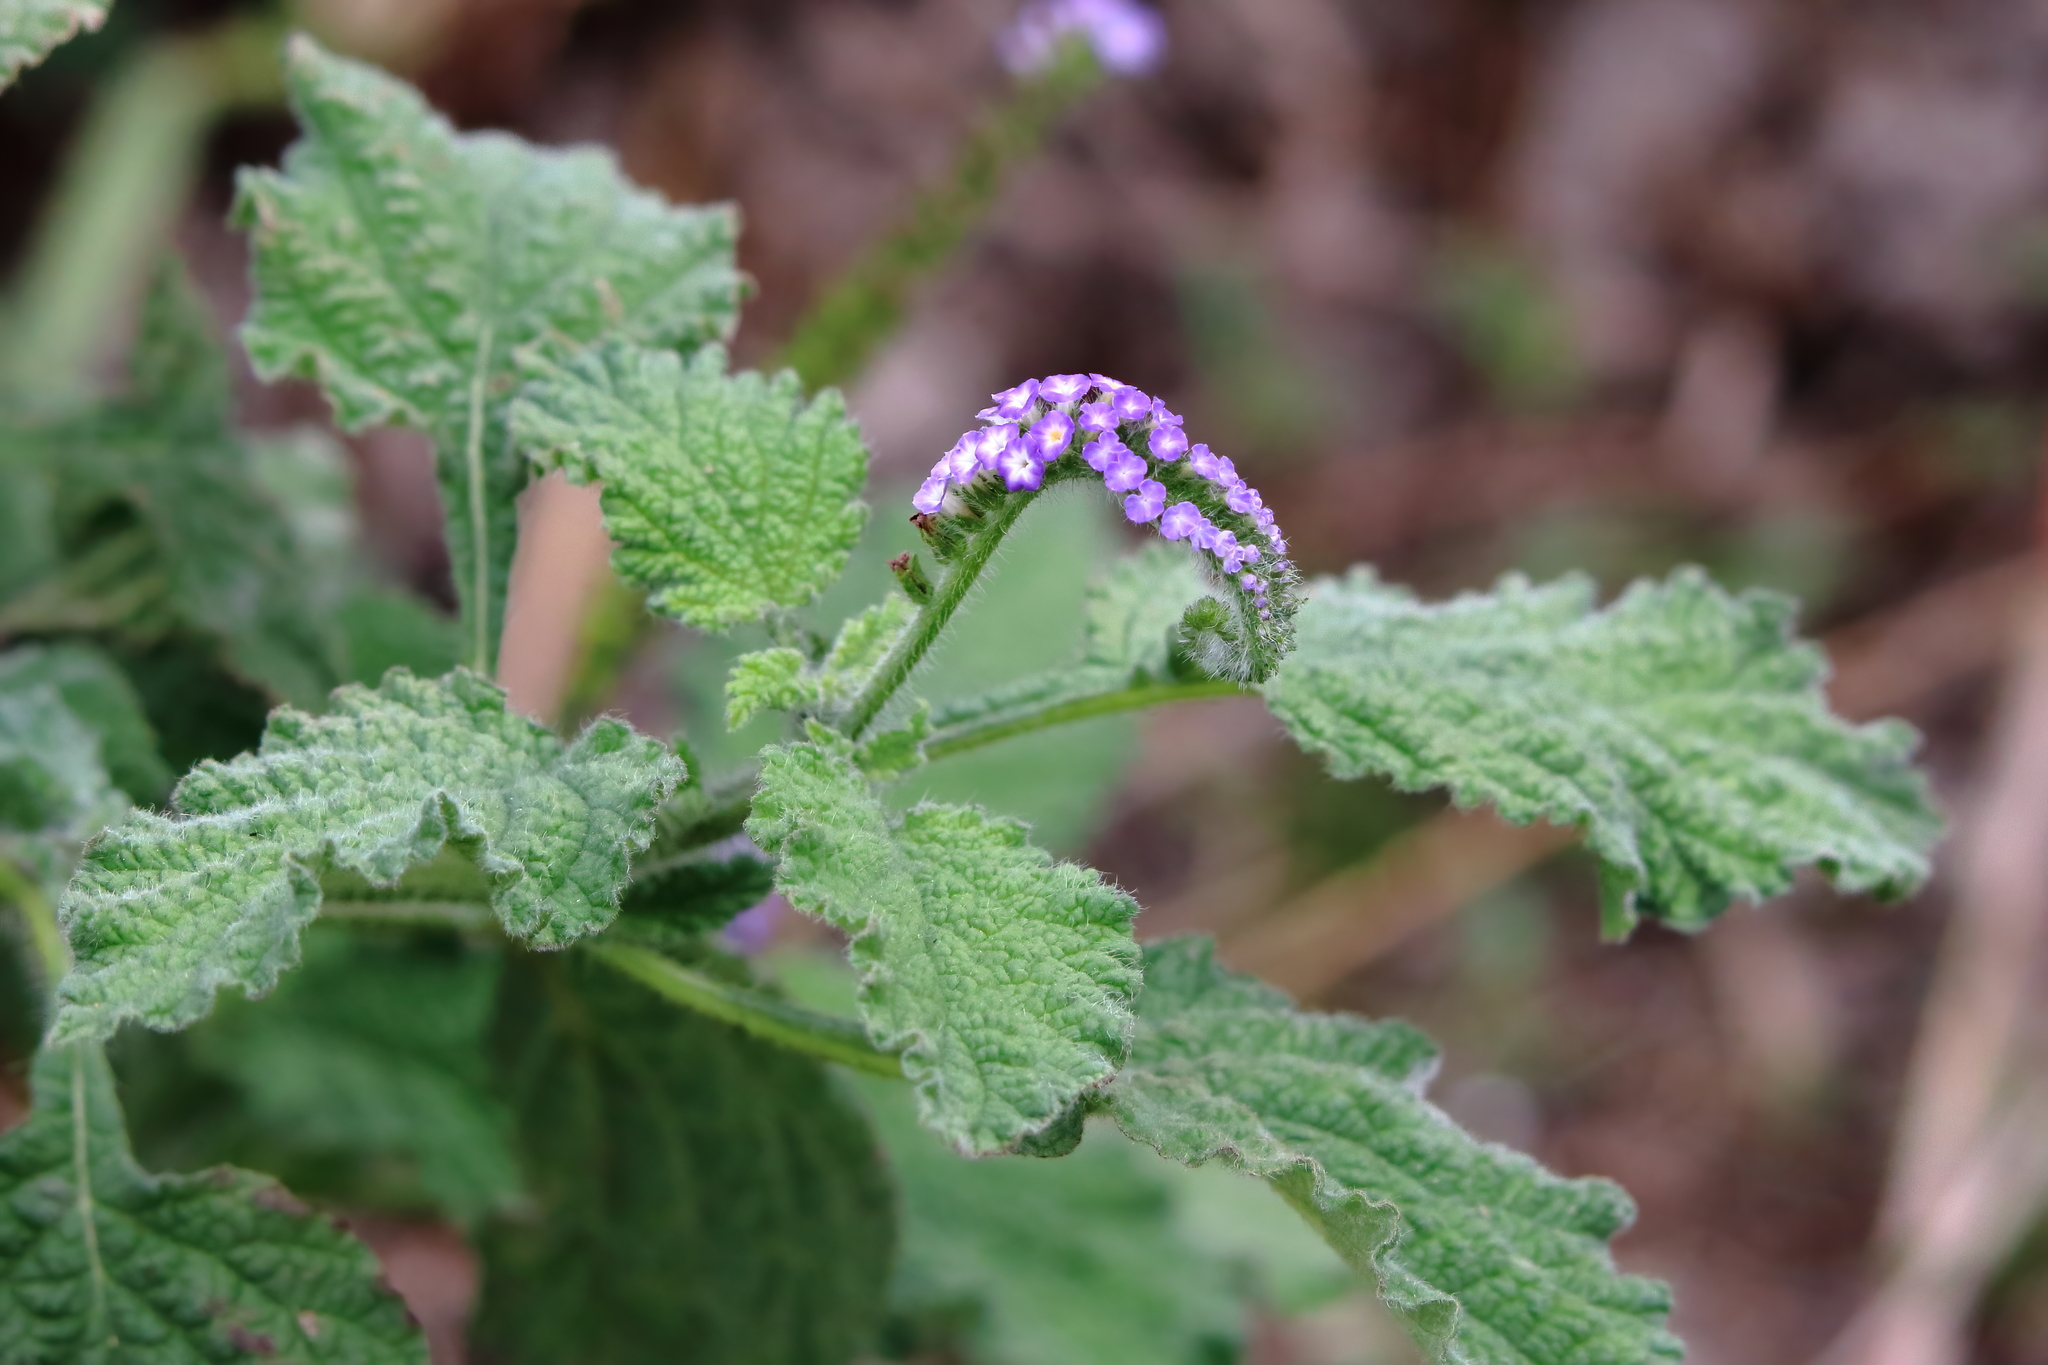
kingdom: Plantae
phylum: Tracheophyta
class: Magnoliopsida
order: Boraginales
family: Heliotropiaceae
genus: Heliotropium
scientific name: Heliotropium indicum
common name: Indian heliotrope
